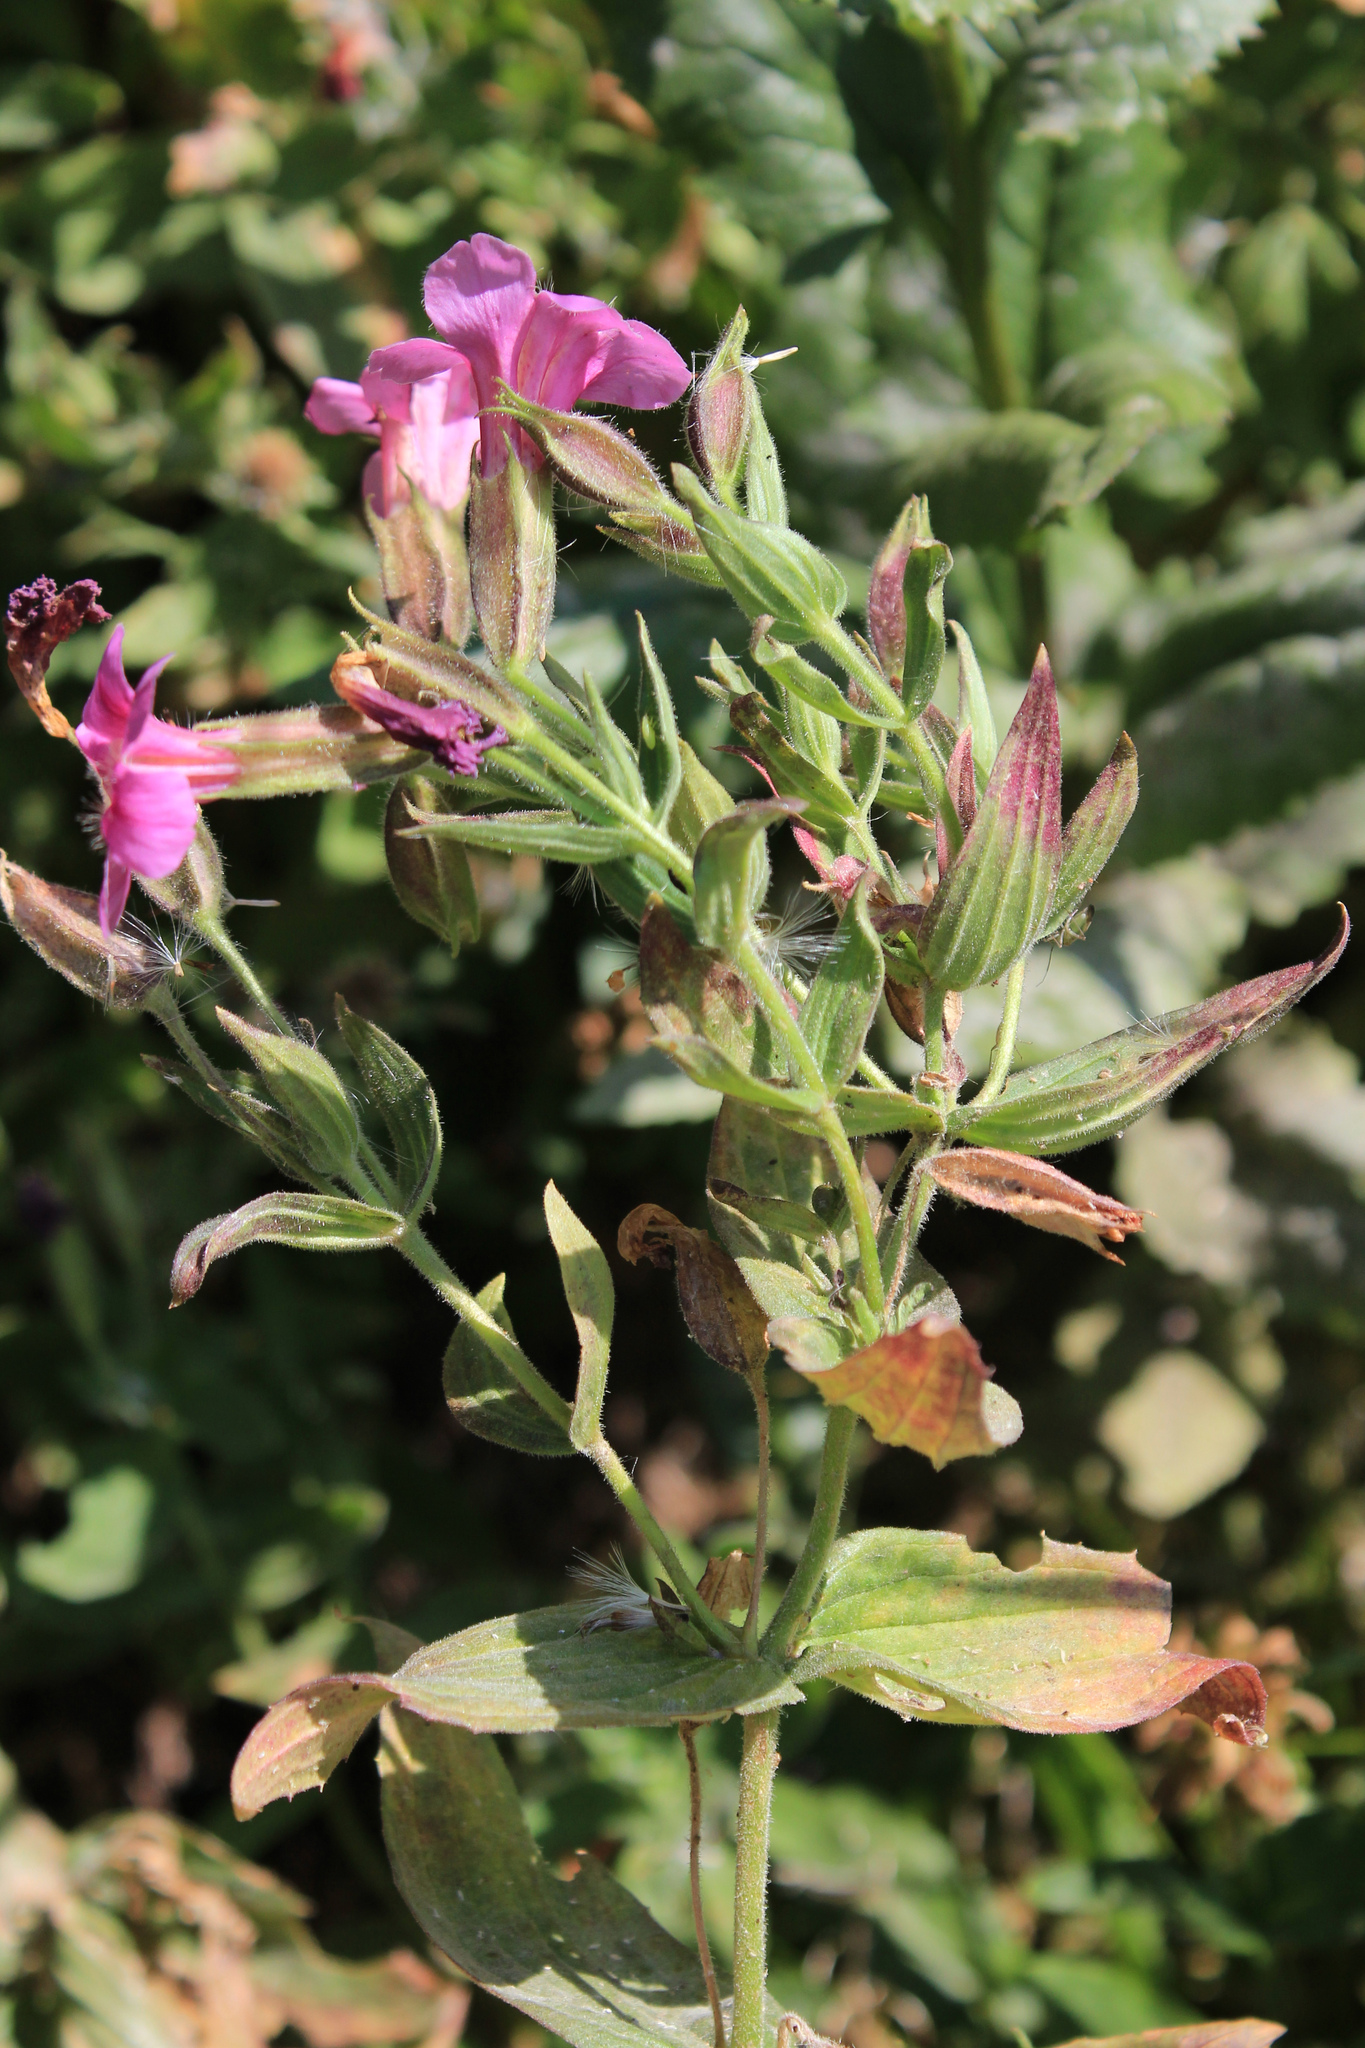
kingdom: Plantae
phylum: Tracheophyta
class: Magnoliopsida
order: Lamiales
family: Phrymaceae
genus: Erythranthe
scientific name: Erythranthe lewisii
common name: Lewis's monkey-flower
